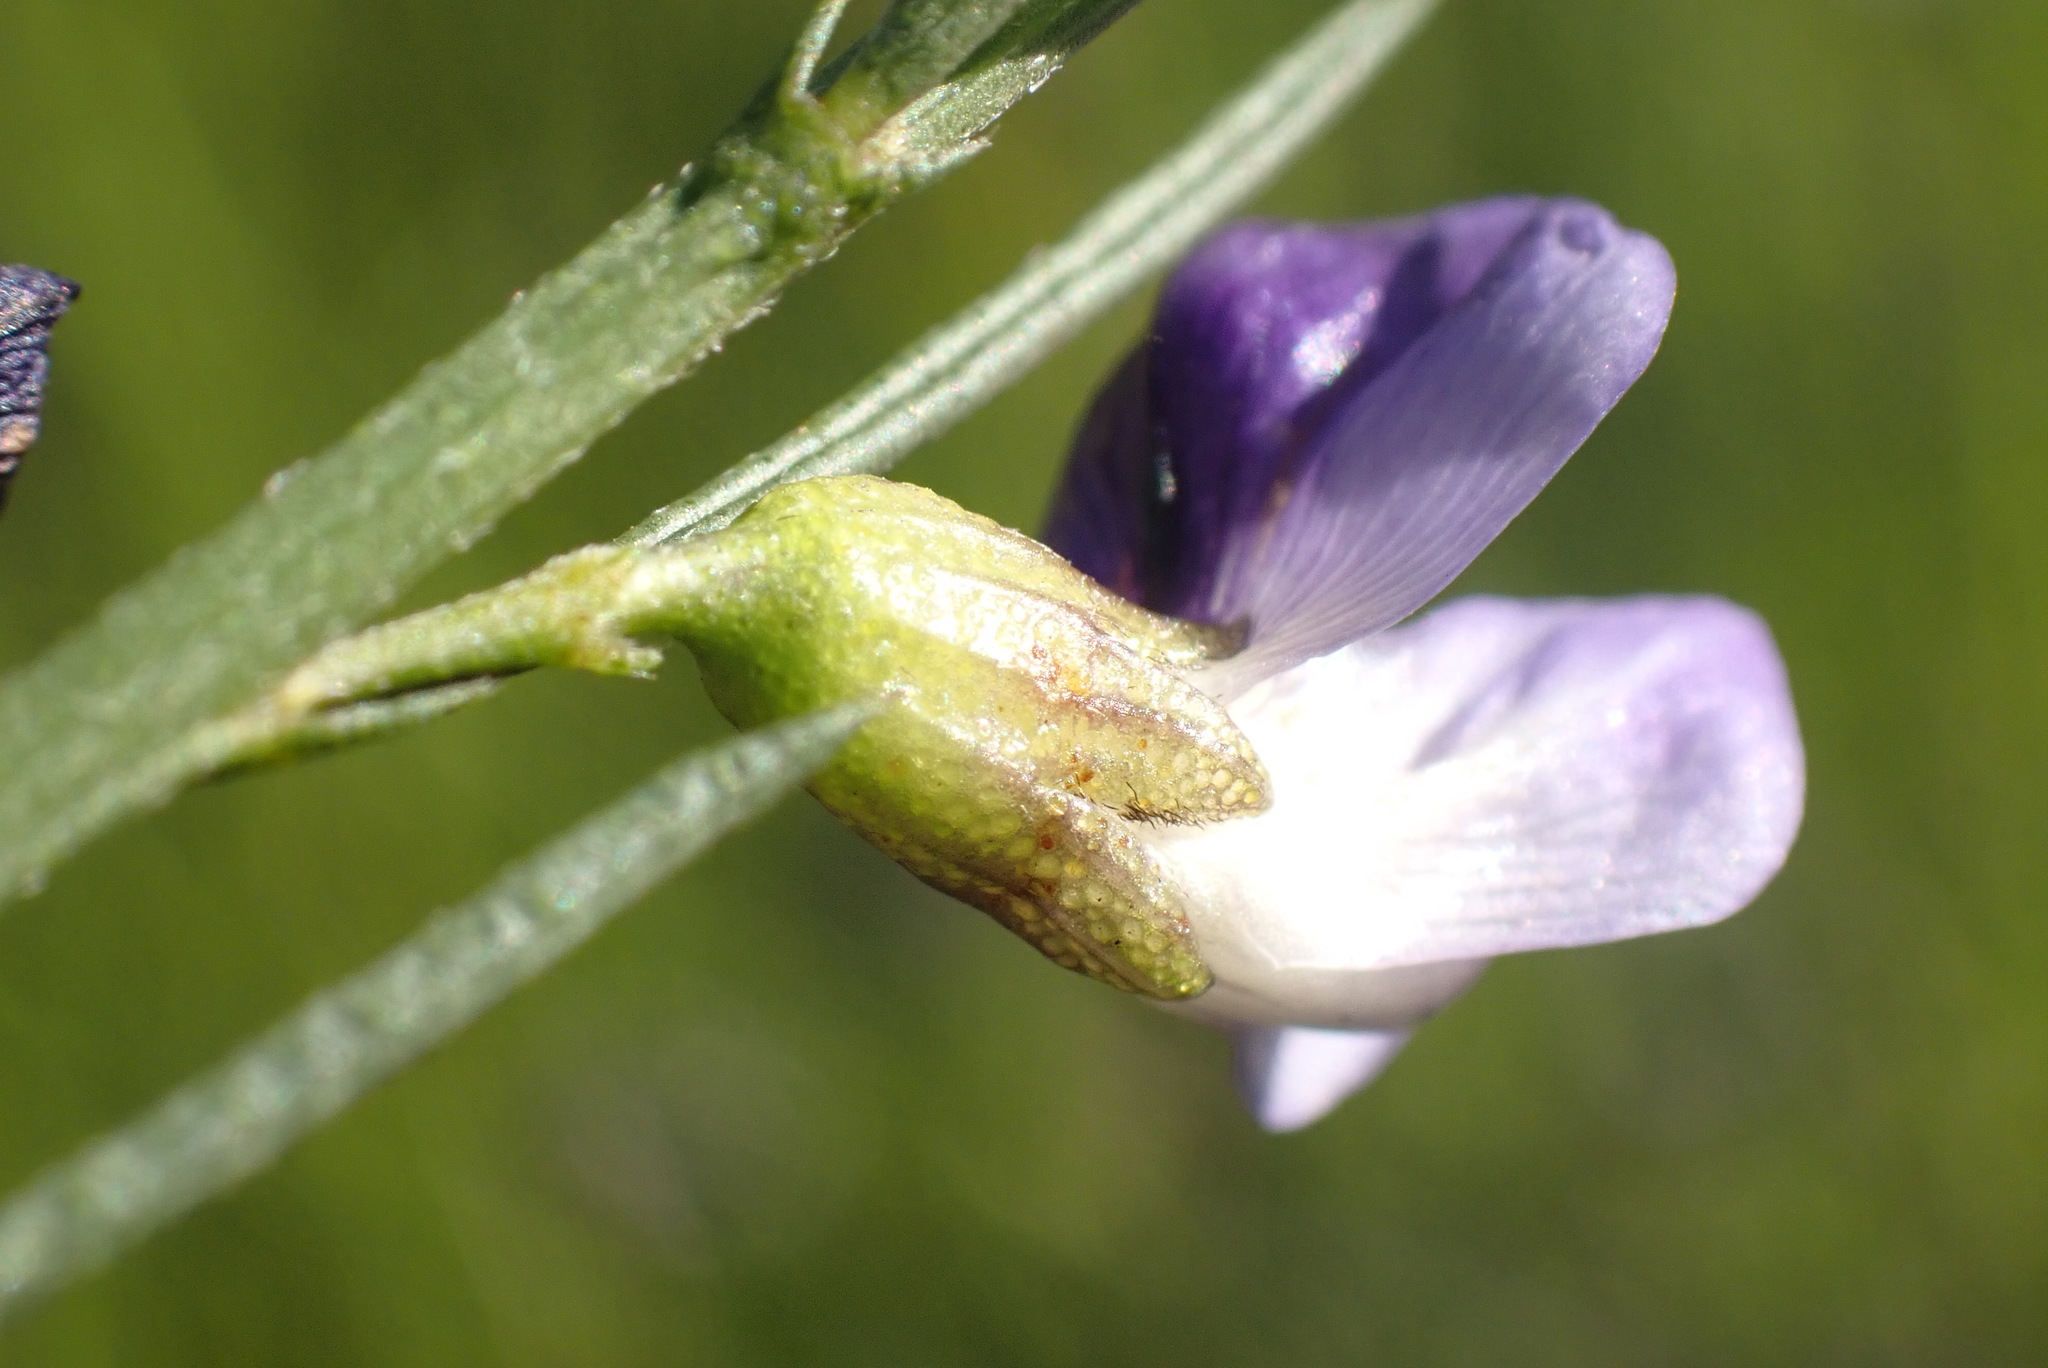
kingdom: Plantae
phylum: Tracheophyta
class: Magnoliopsida
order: Fabales
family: Fabaceae
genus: Psoralea
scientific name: Psoralea sordida
